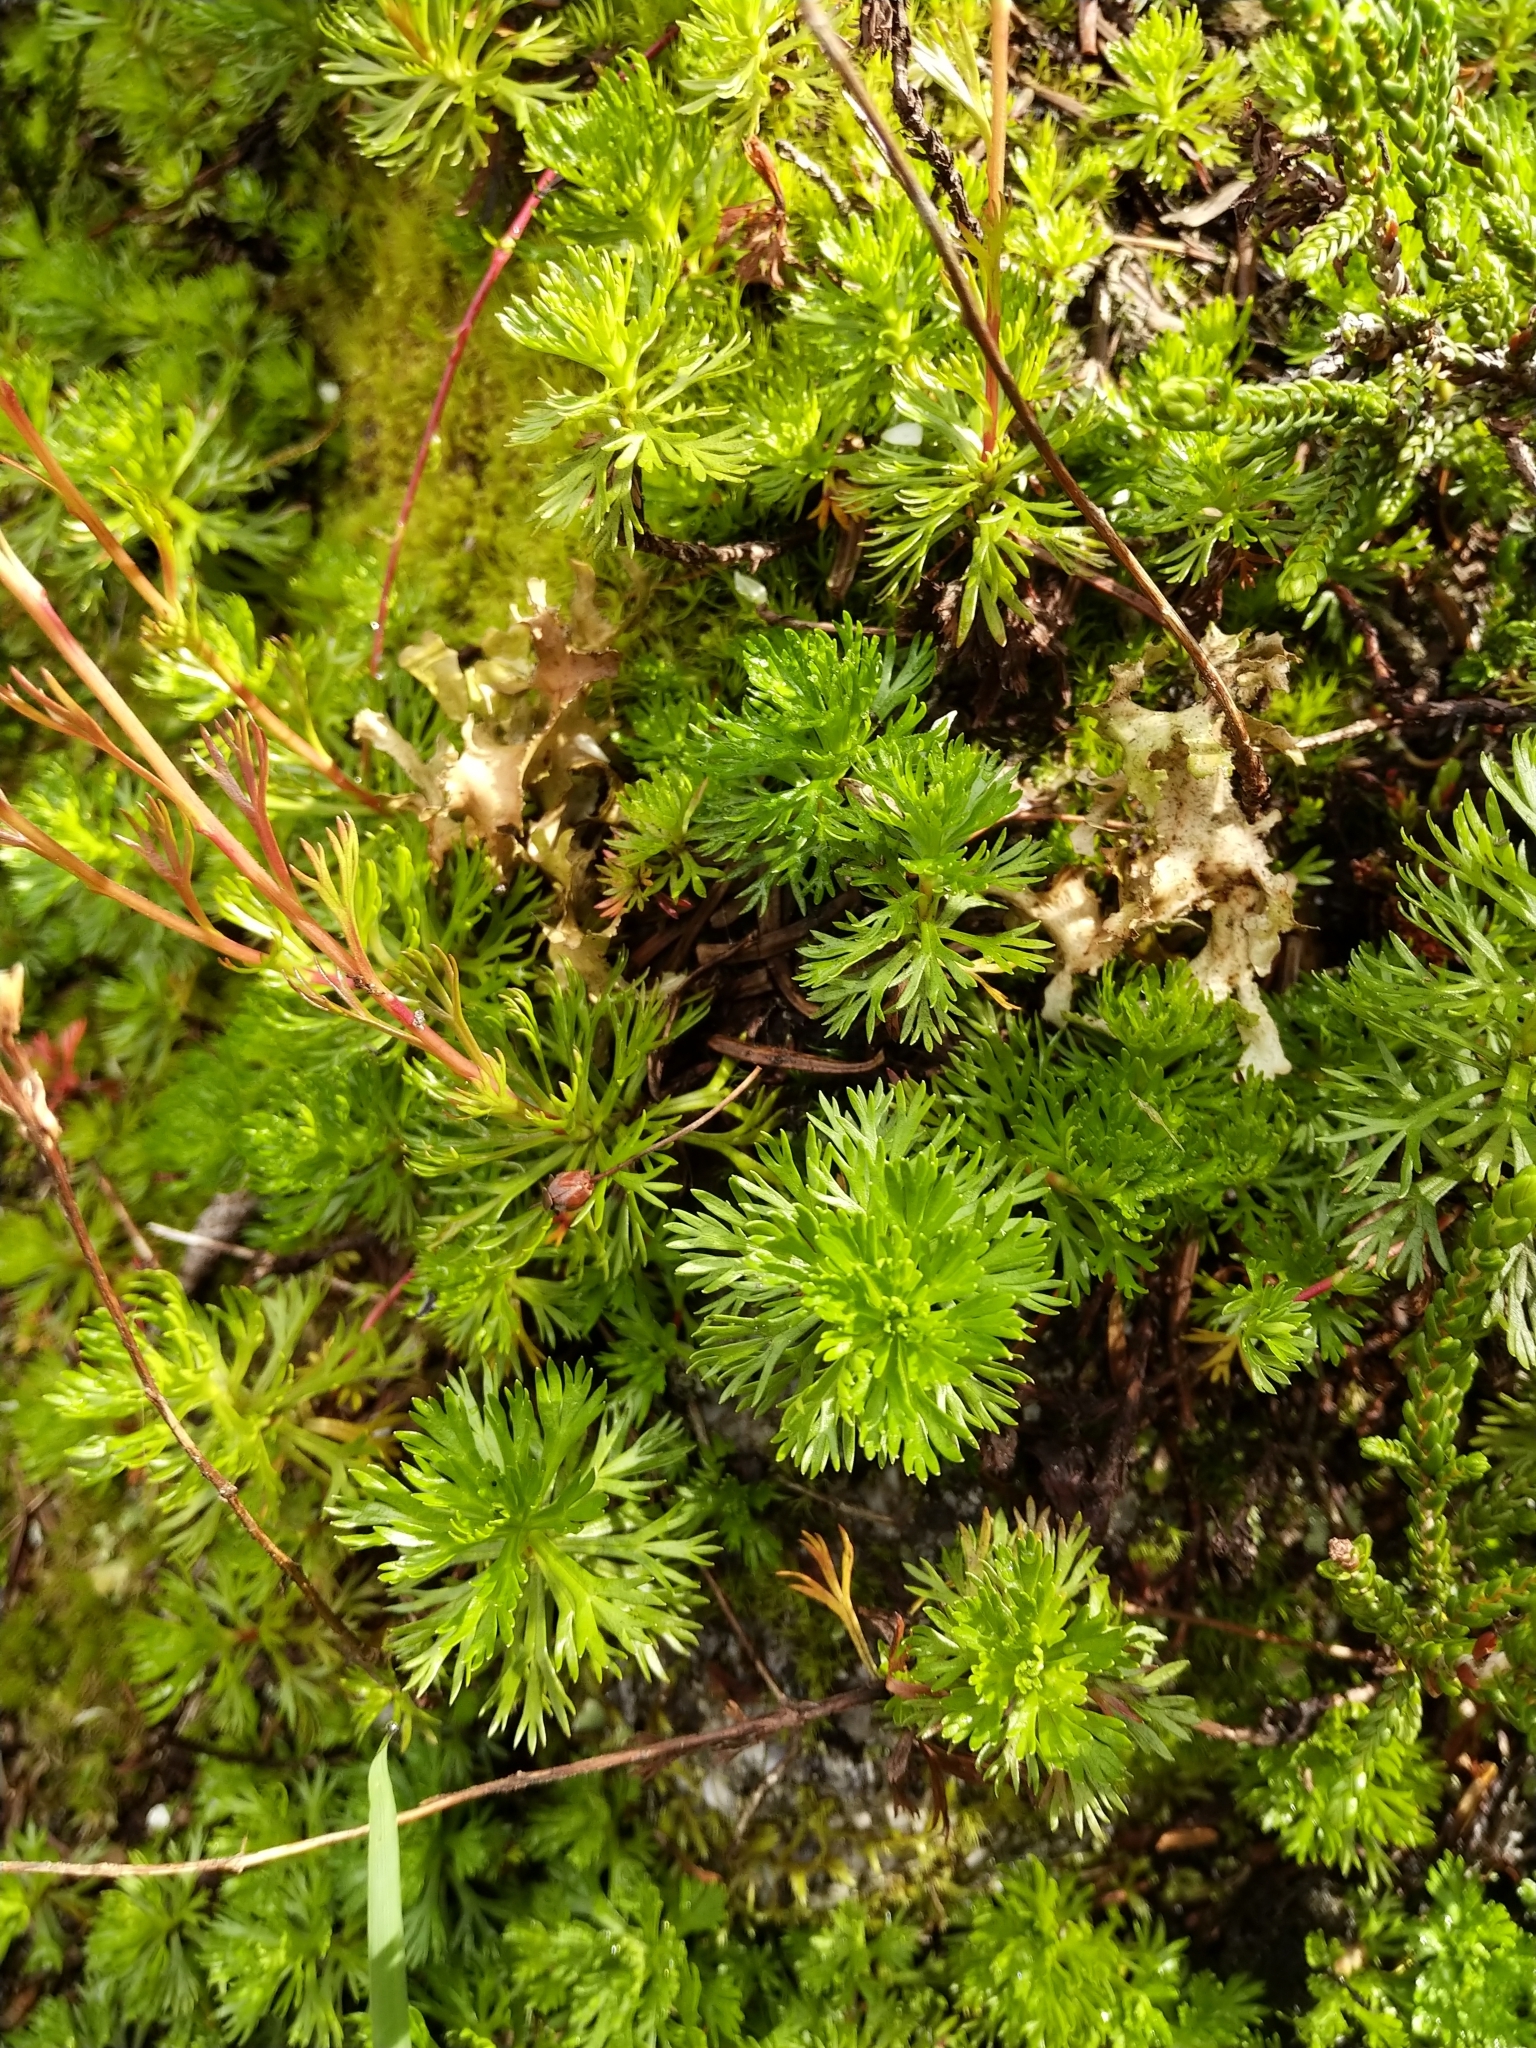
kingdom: Plantae
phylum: Tracheophyta
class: Magnoliopsida
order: Rosales
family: Rosaceae
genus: Luetkea
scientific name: Luetkea pectinata
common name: Partridgefoot
